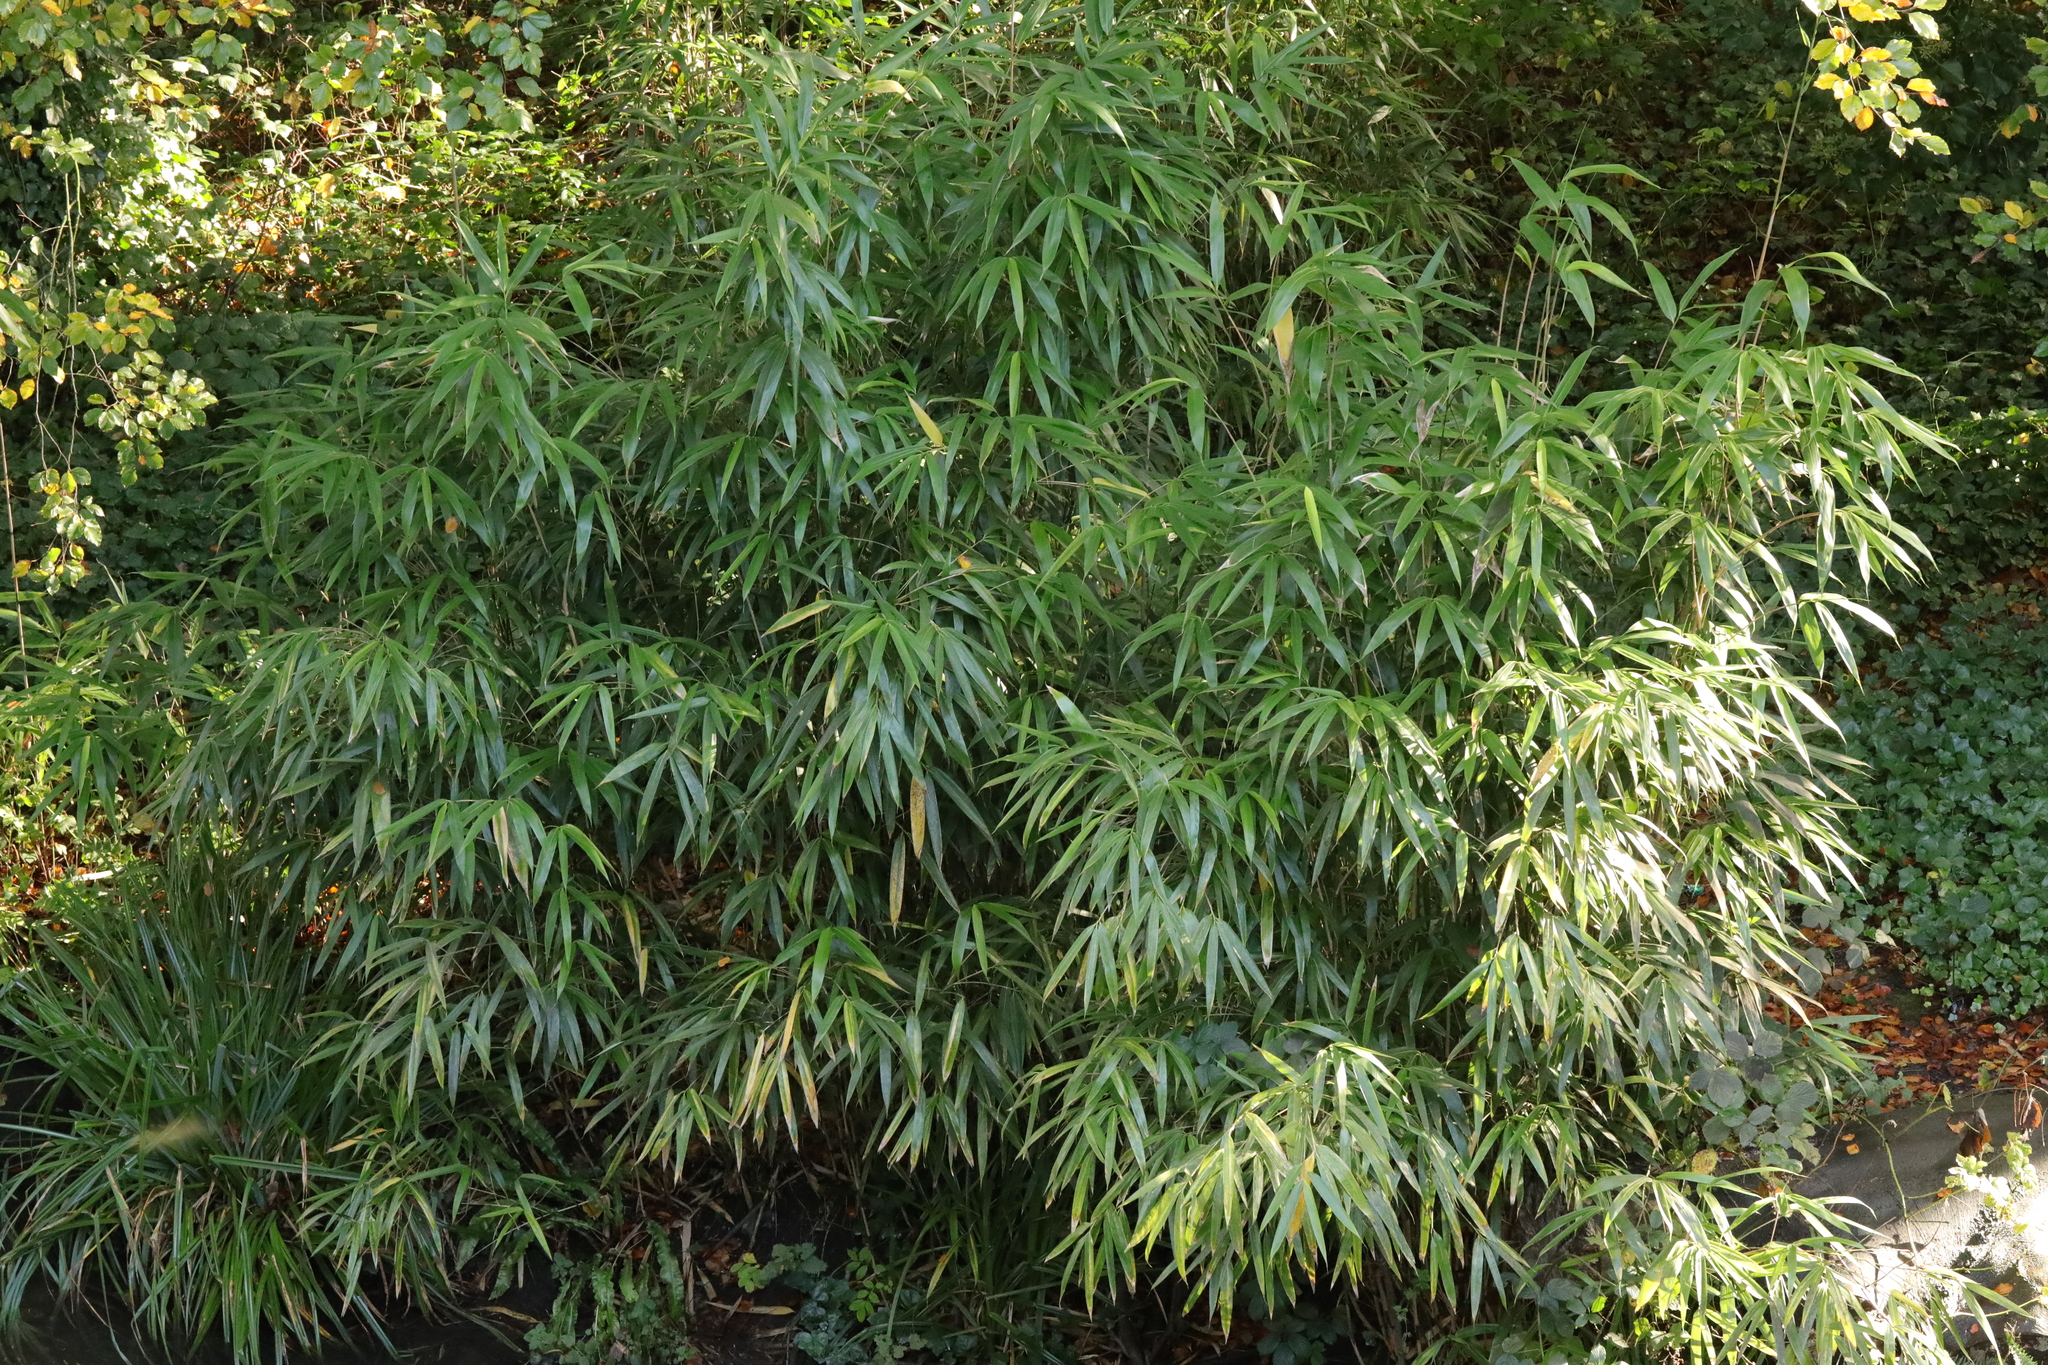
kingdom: Plantae
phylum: Tracheophyta
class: Liliopsida
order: Poales
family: Poaceae
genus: Pseudosasa
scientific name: Pseudosasa japonica
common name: Arrow bamboo
